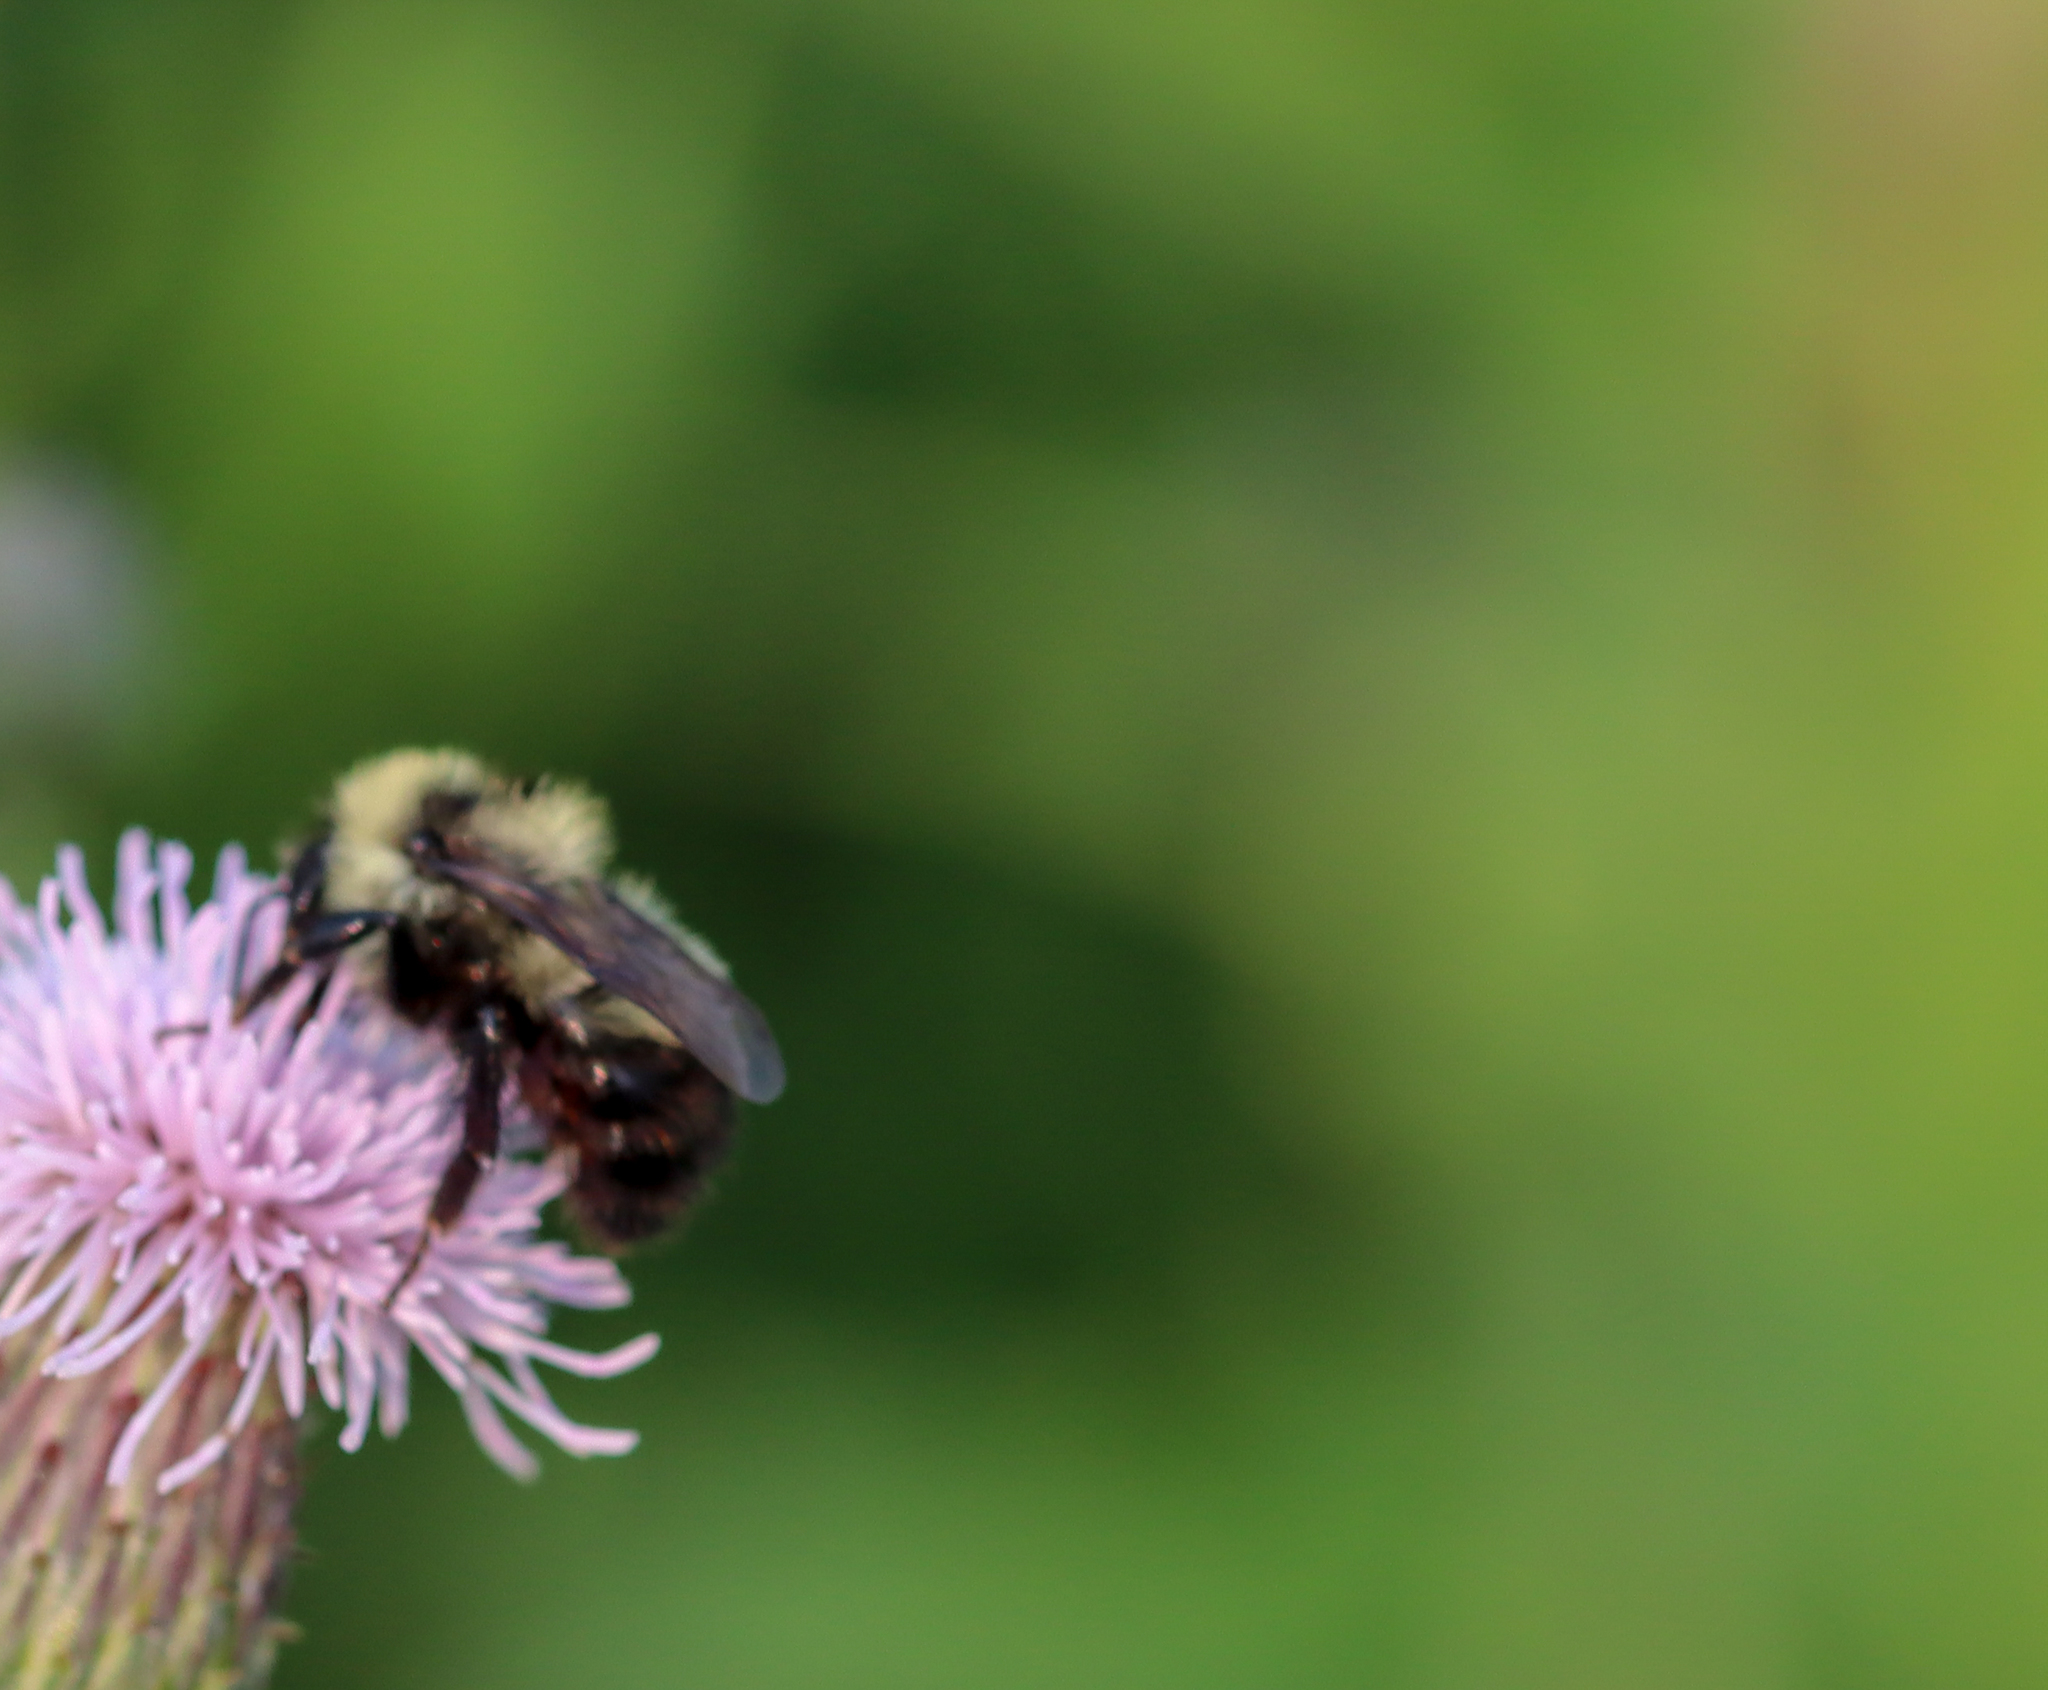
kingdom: Animalia
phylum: Arthropoda
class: Insecta
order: Hymenoptera
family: Apidae
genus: Bombus
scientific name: Bombus rufocinctus
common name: Red-belted bumble bee
